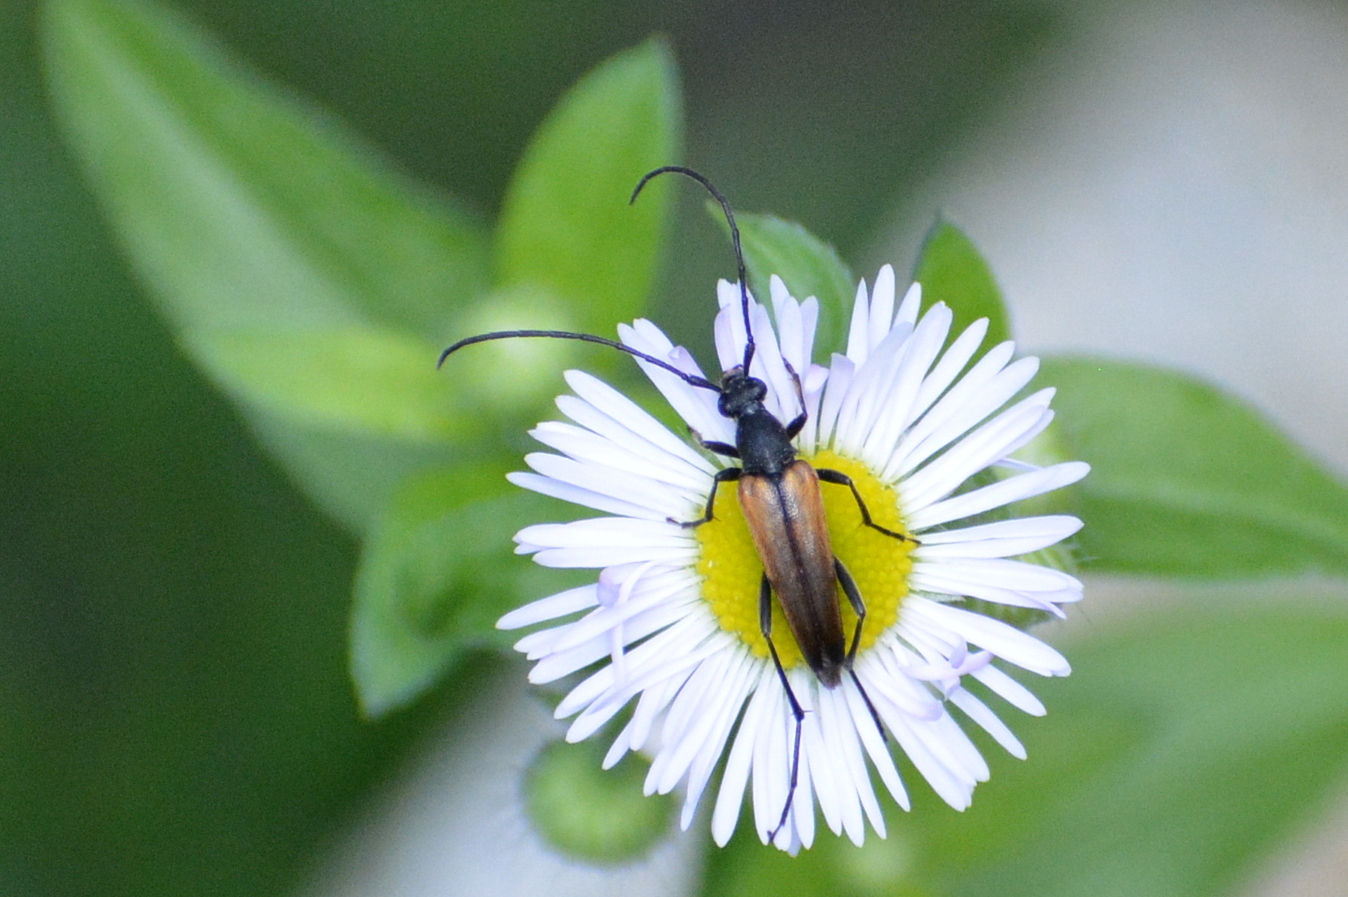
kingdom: Animalia
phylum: Arthropoda
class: Insecta
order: Coleoptera
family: Cerambycidae
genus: Stenurella
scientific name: Stenurella melanura
